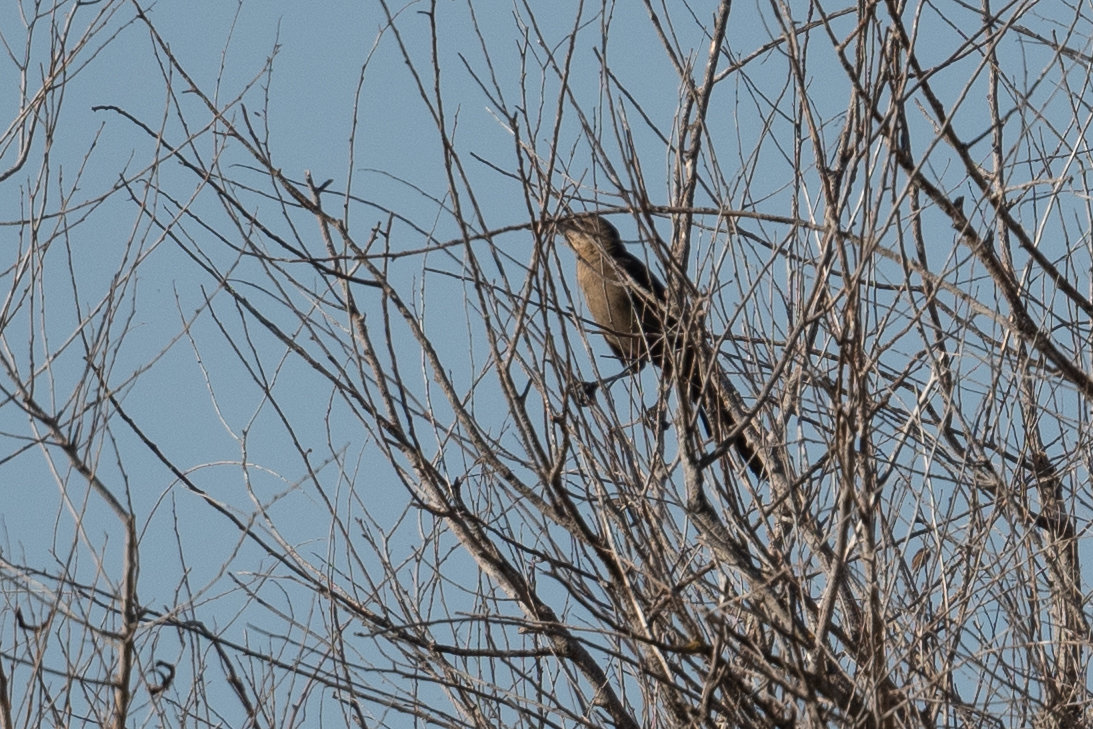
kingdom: Animalia
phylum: Chordata
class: Aves
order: Passeriformes
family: Icteridae
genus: Quiscalus
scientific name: Quiscalus mexicanus
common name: Great-tailed grackle
